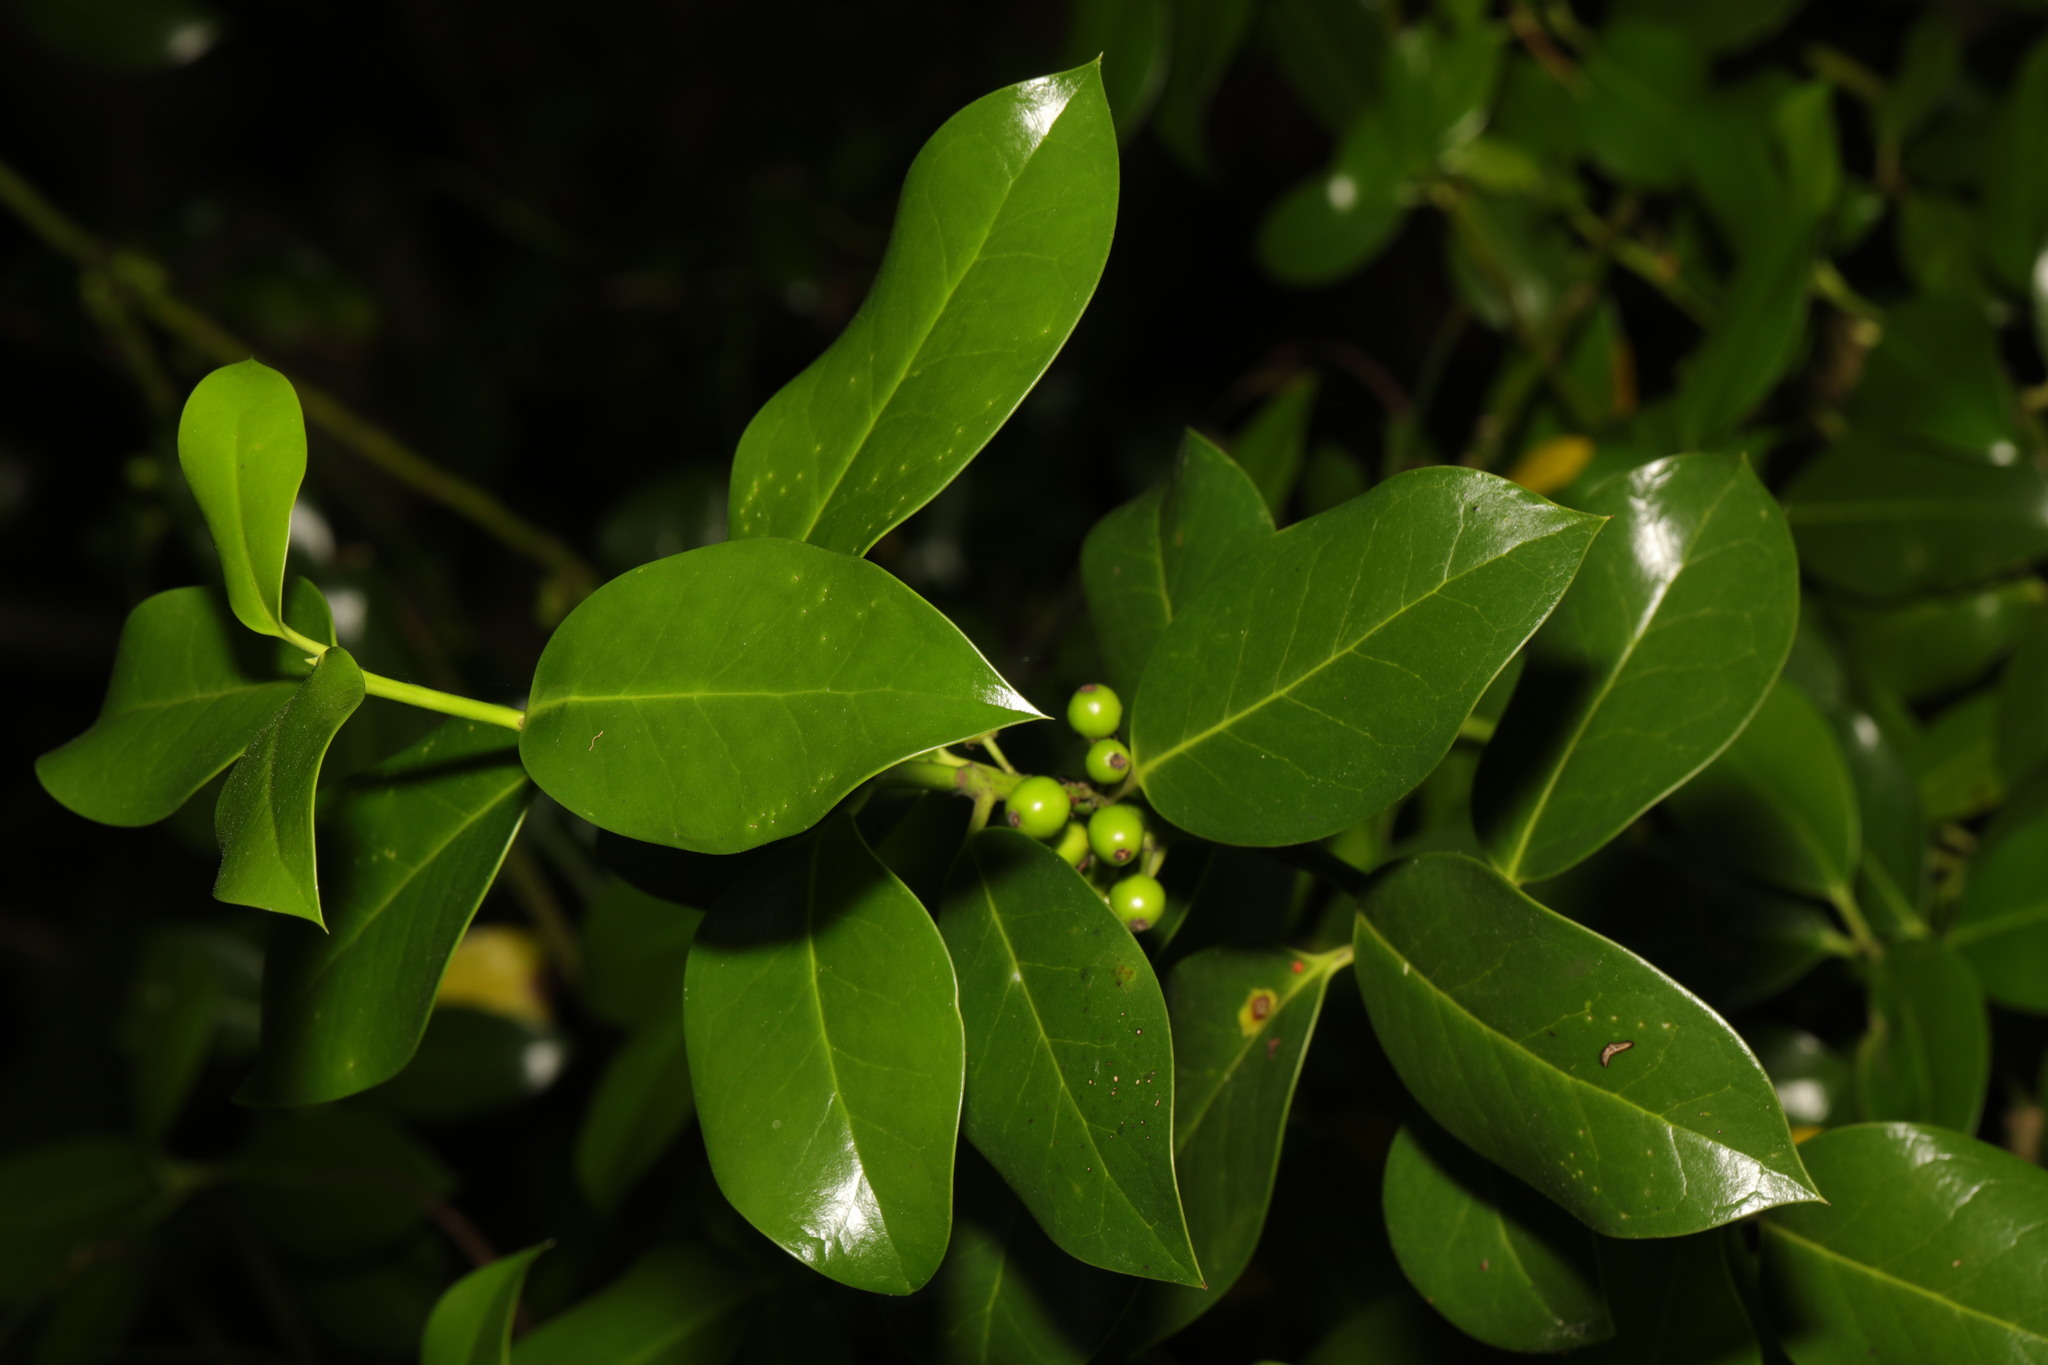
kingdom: Plantae
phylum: Tracheophyta
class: Magnoliopsida
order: Aquifoliales
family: Aquifoliaceae
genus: Ilex
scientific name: Ilex aquifolium
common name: English holly
